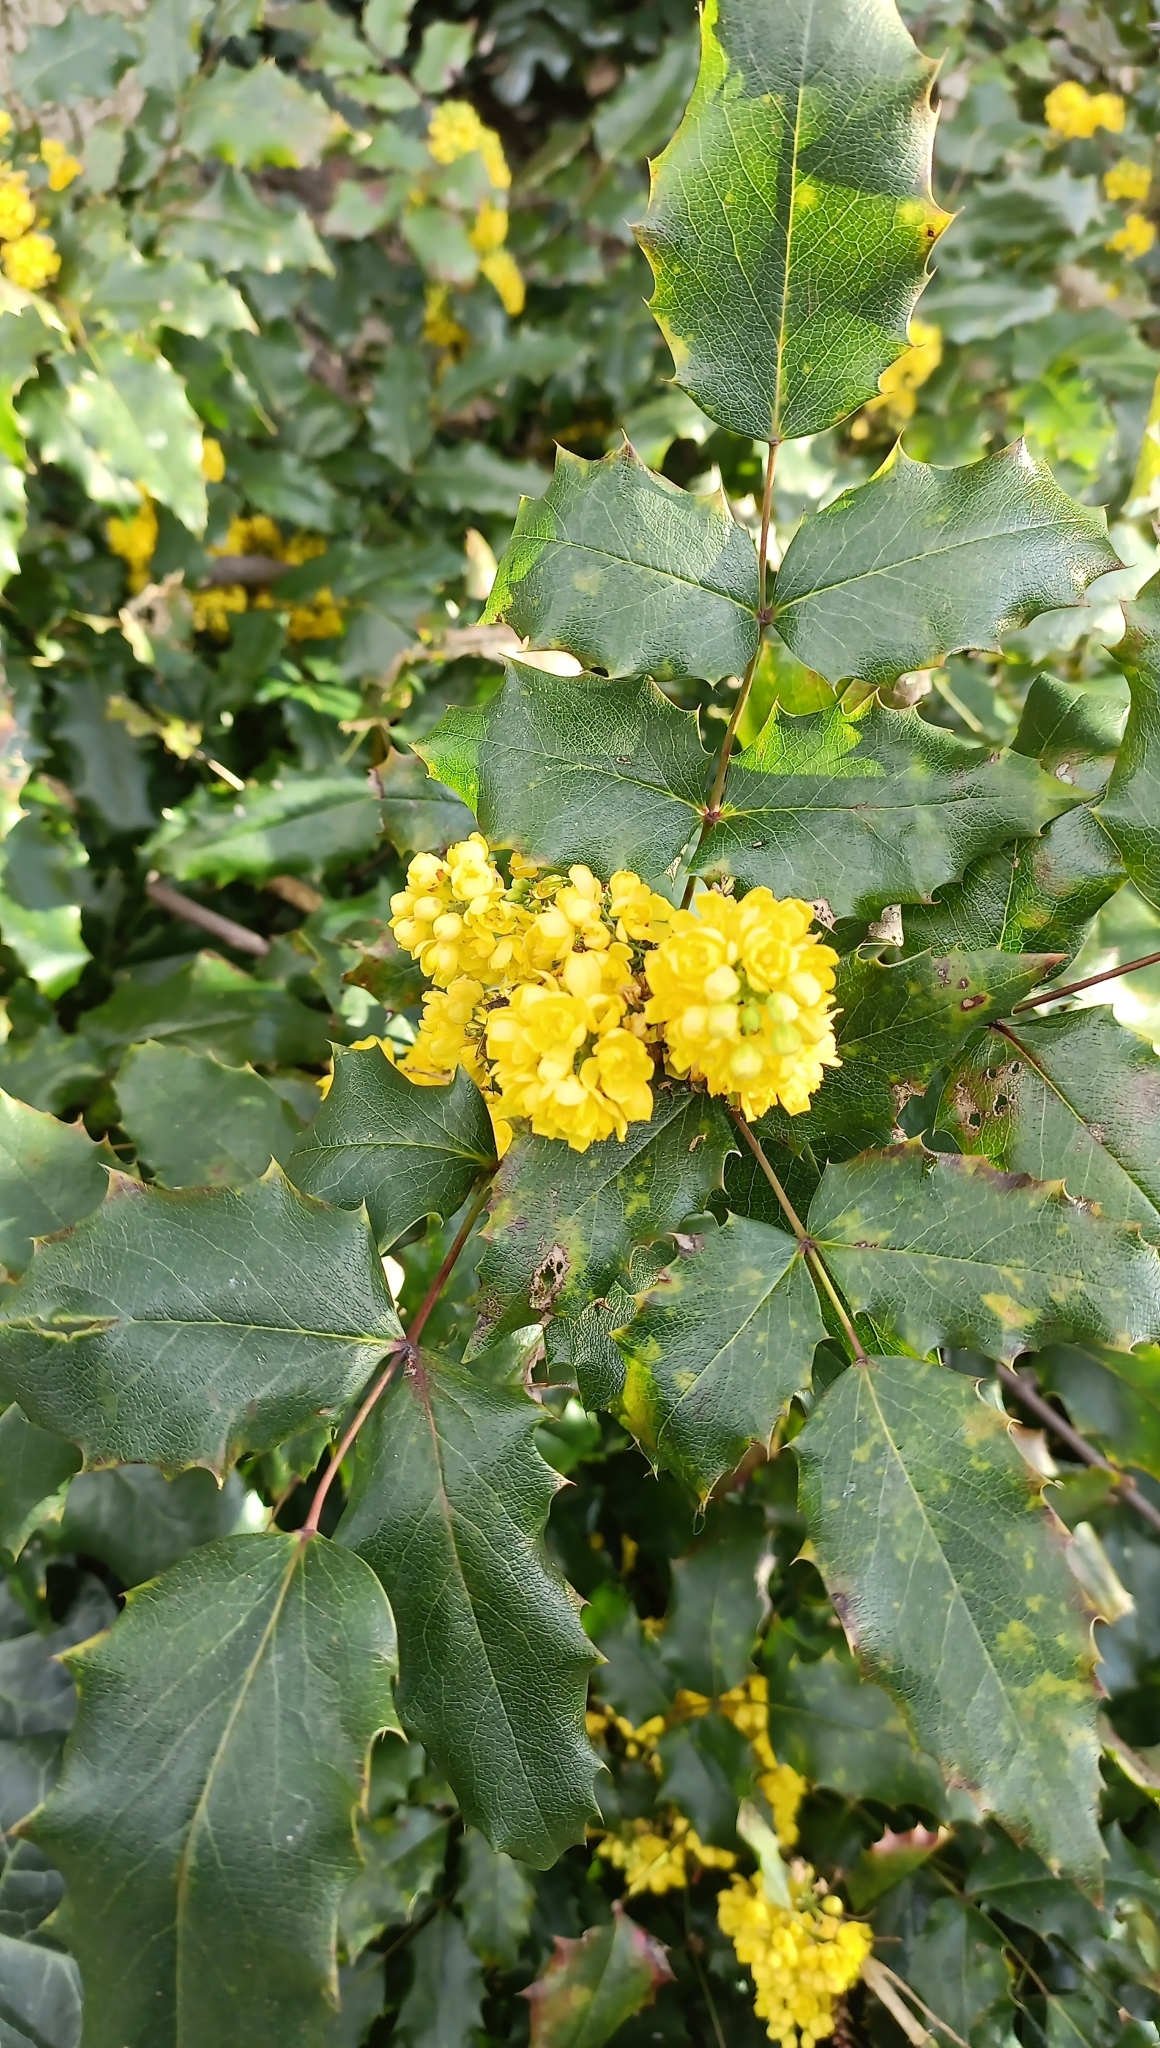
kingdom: Plantae
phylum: Tracheophyta
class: Magnoliopsida
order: Ranunculales
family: Berberidaceae
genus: Mahonia
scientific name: Mahonia aquifolium
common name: Oregon-grape
